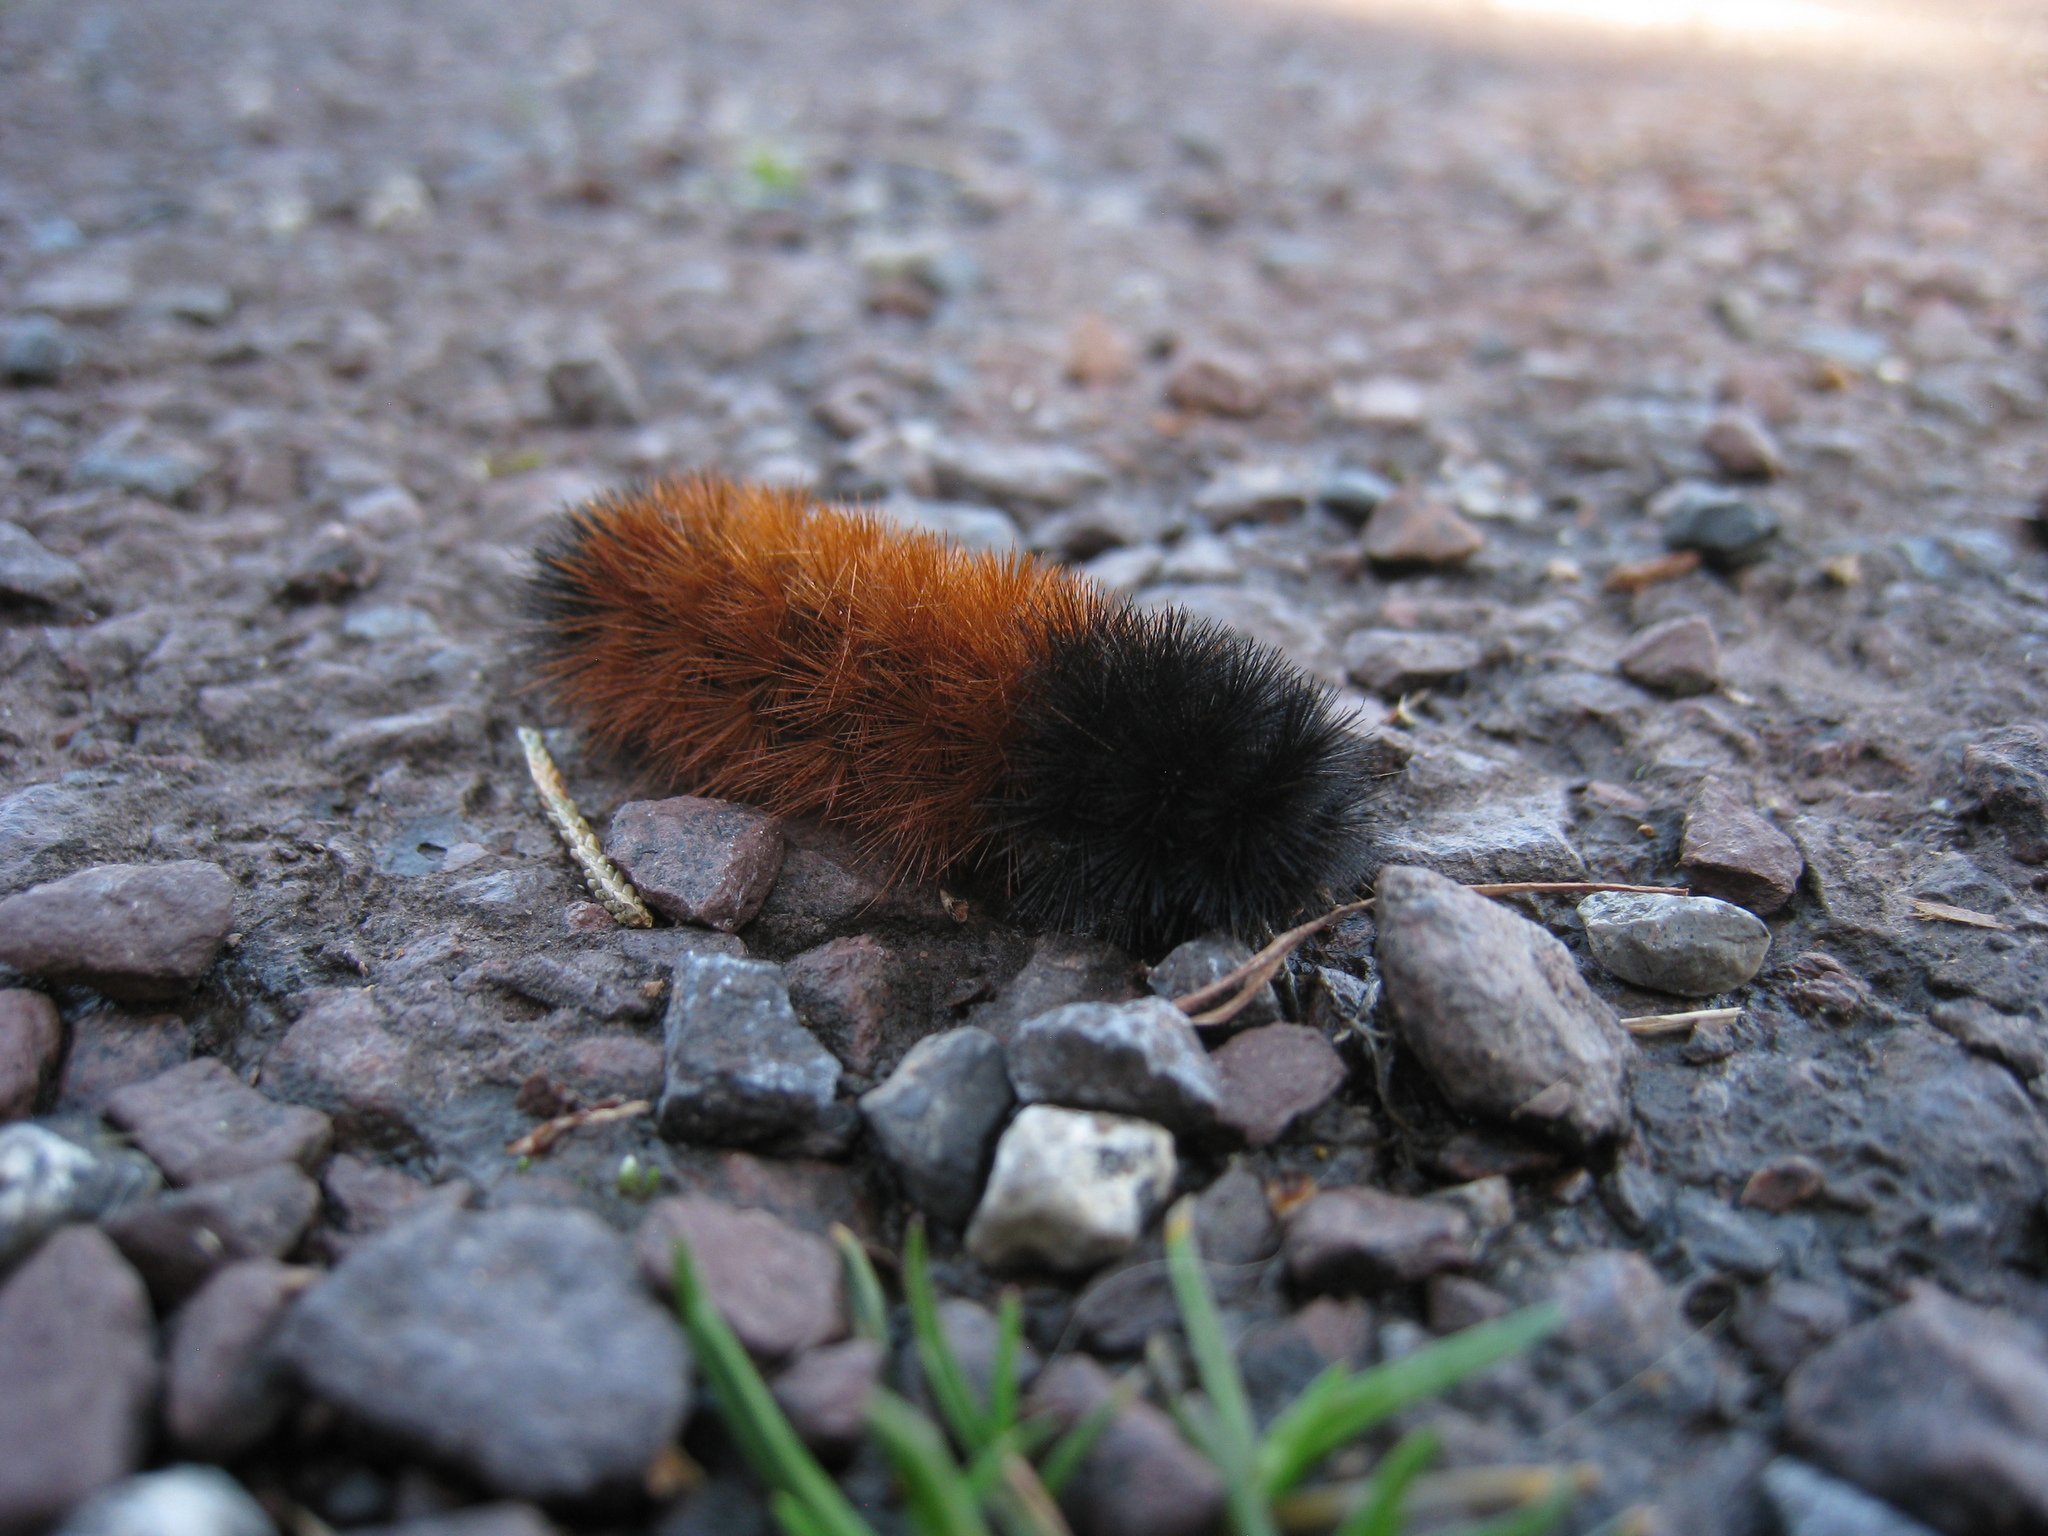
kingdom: Animalia
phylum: Arthropoda
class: Insecta
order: Lepidoptera
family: Erebidae
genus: Pyrrharctia
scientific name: Pyrrharctia isabella
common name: Isabella tiger moth
